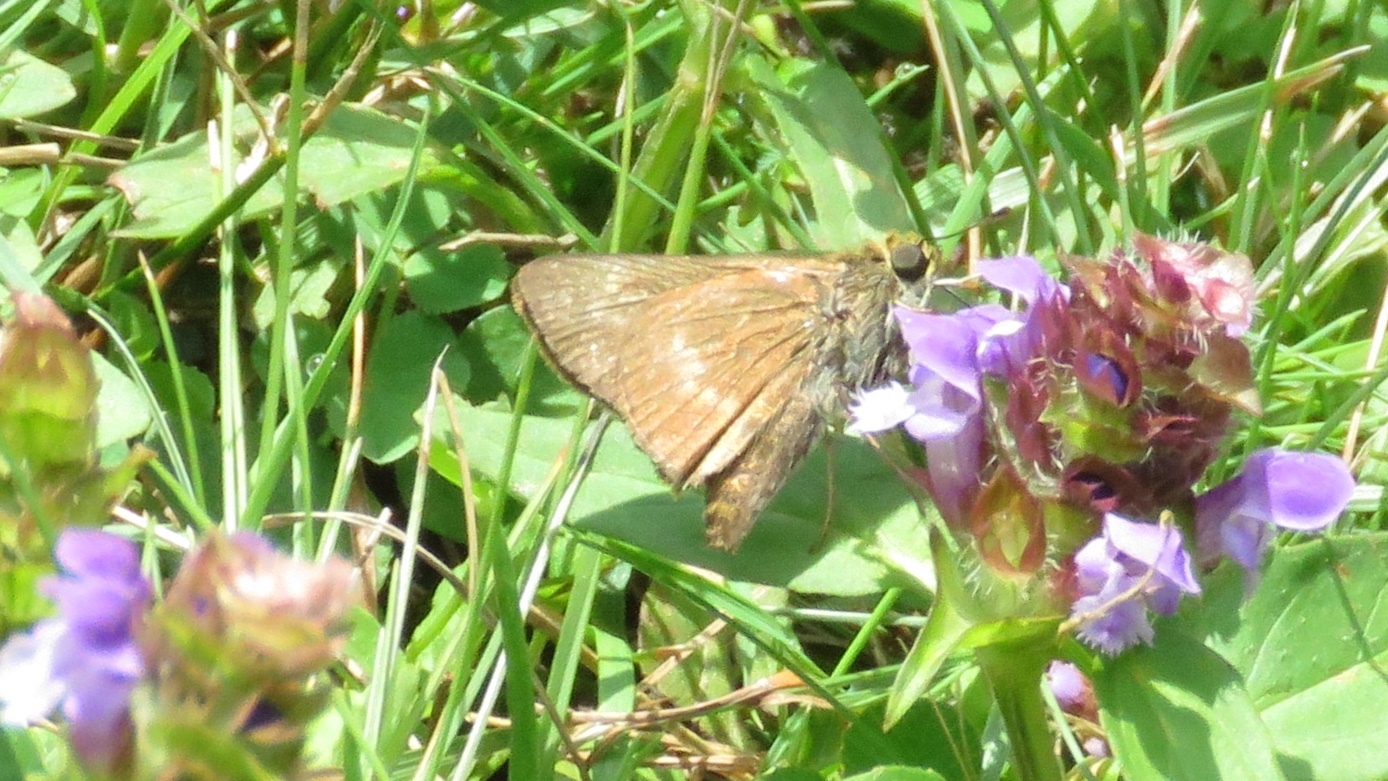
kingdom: Animalia
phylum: Arthropoda
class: Insecta
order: Lepidoptera
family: Hesperiidae
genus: Polites
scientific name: Polites egeremet
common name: Northern broken-dash
